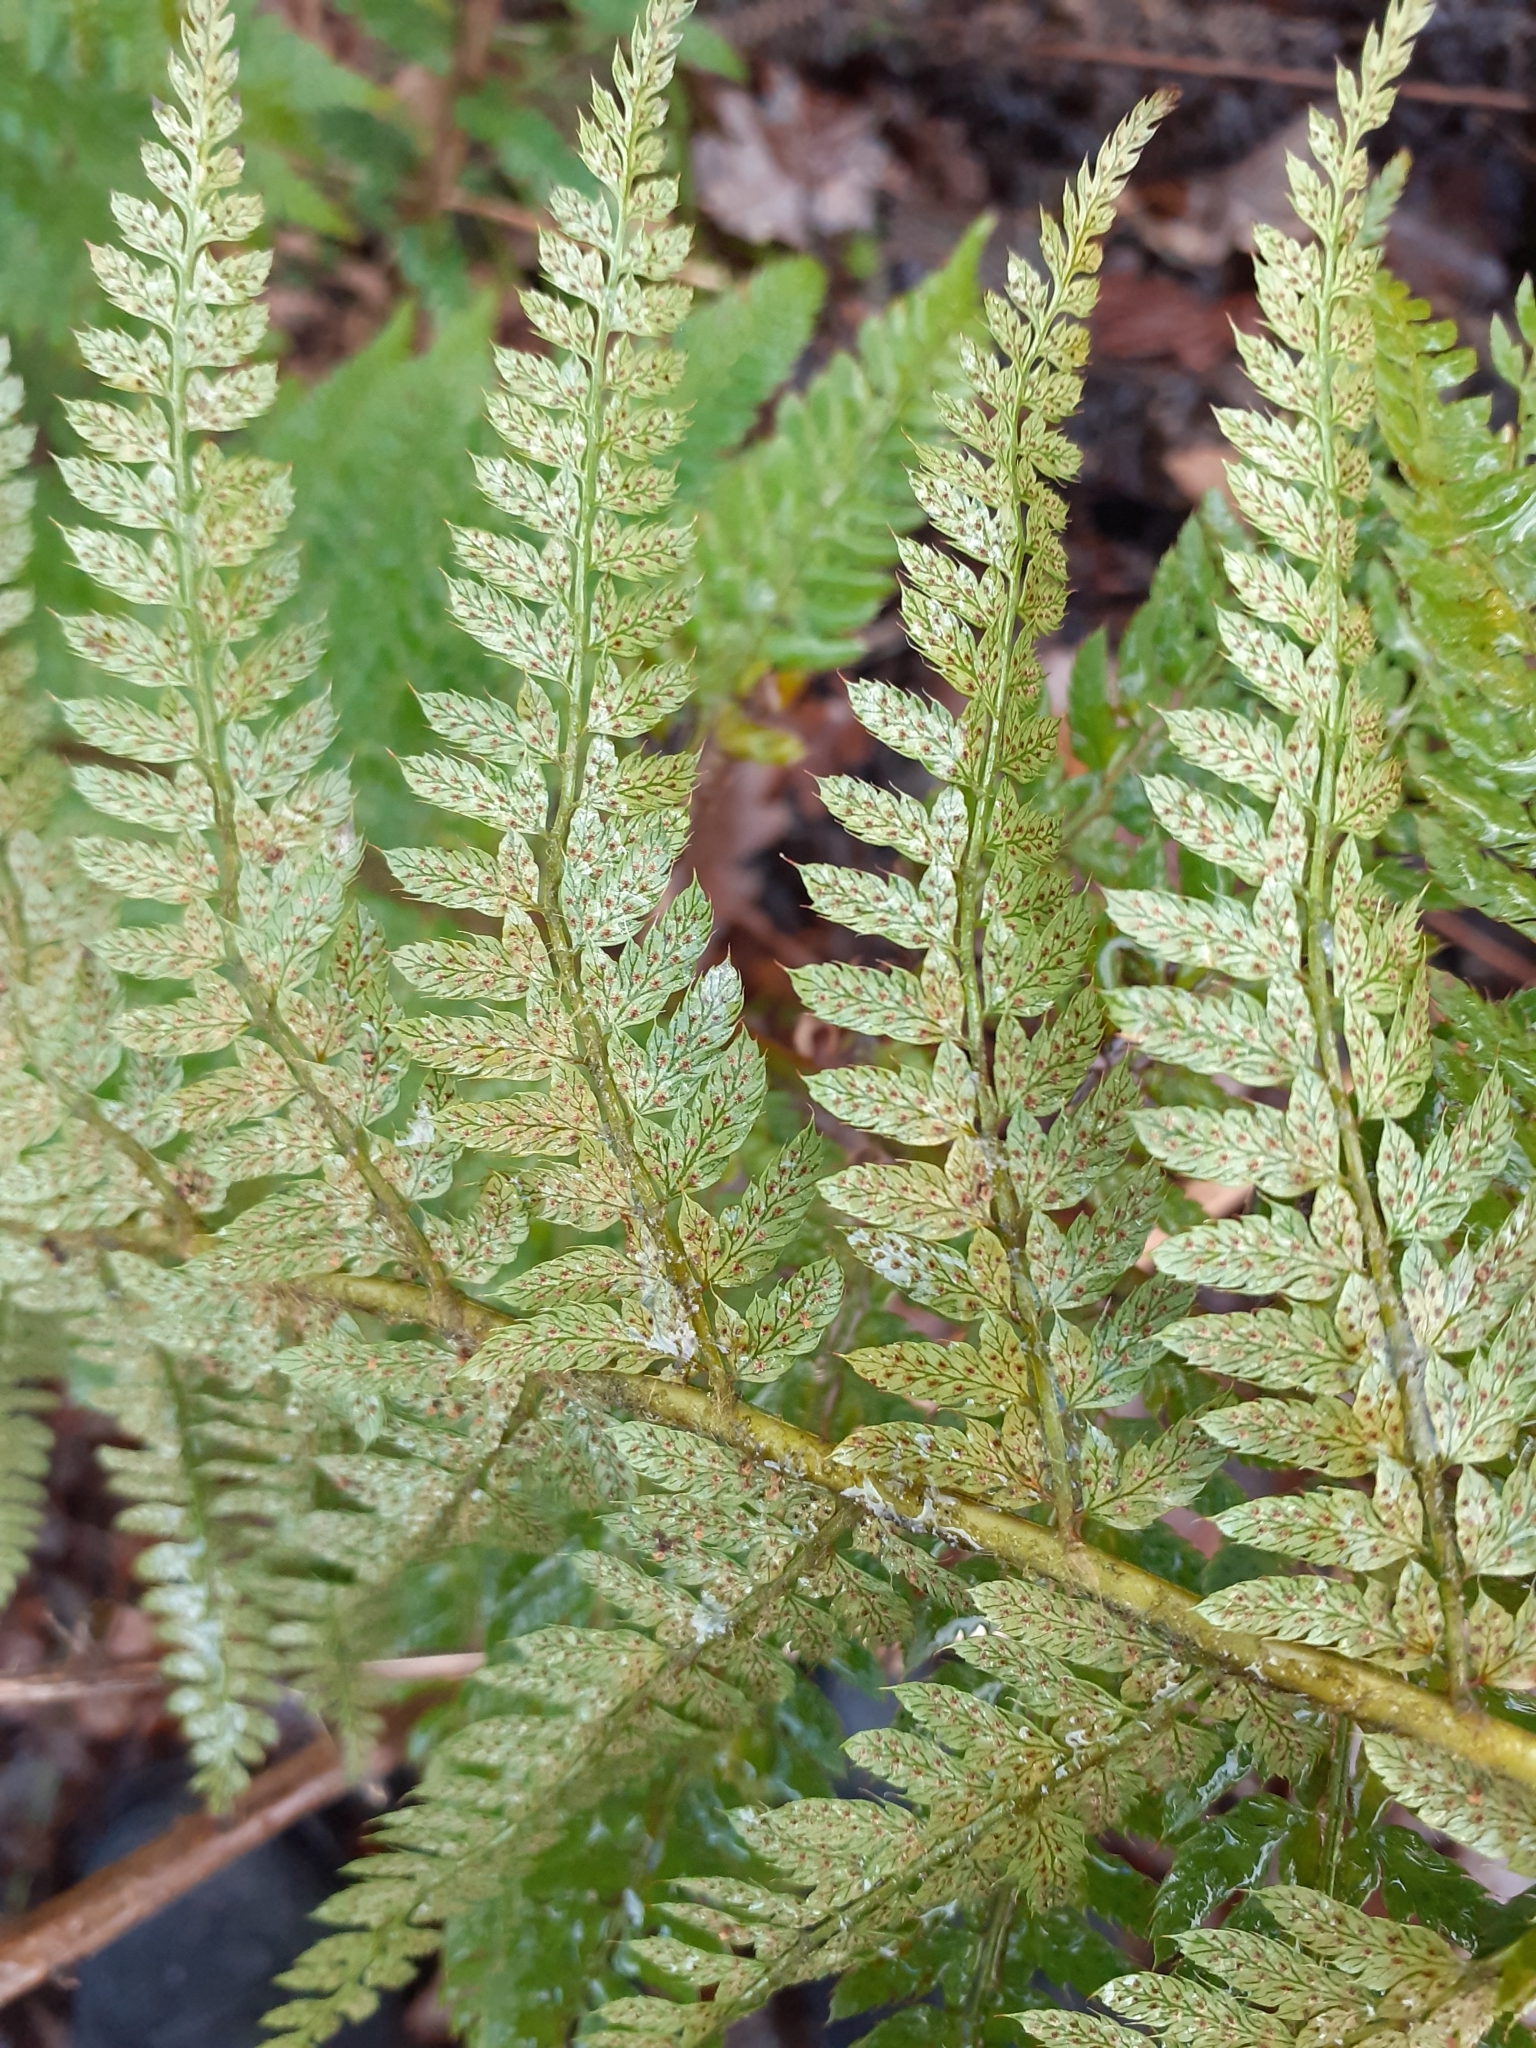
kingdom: Plantae
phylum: Tracheophyta
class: Polypodiopsida
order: Polypodiales
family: Dryopteridaceae
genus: Polystichum
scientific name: Polystichum setiferum
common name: Soft shield-fern
